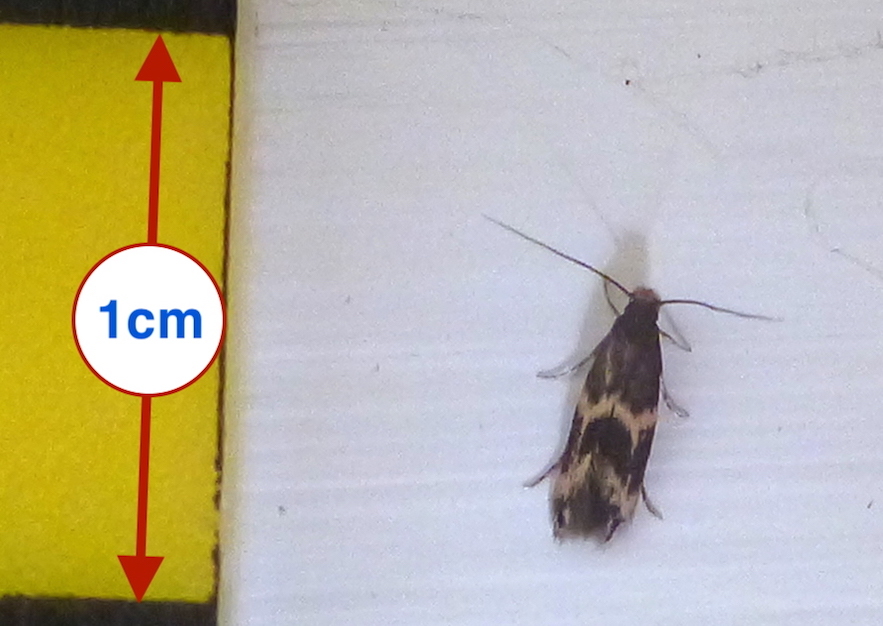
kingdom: Animalia
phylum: Arthropoda
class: Insecta
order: Lepidoptera
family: Tineidae
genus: Oinophila
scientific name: Oinophila v-flava
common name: Yellow v moth
